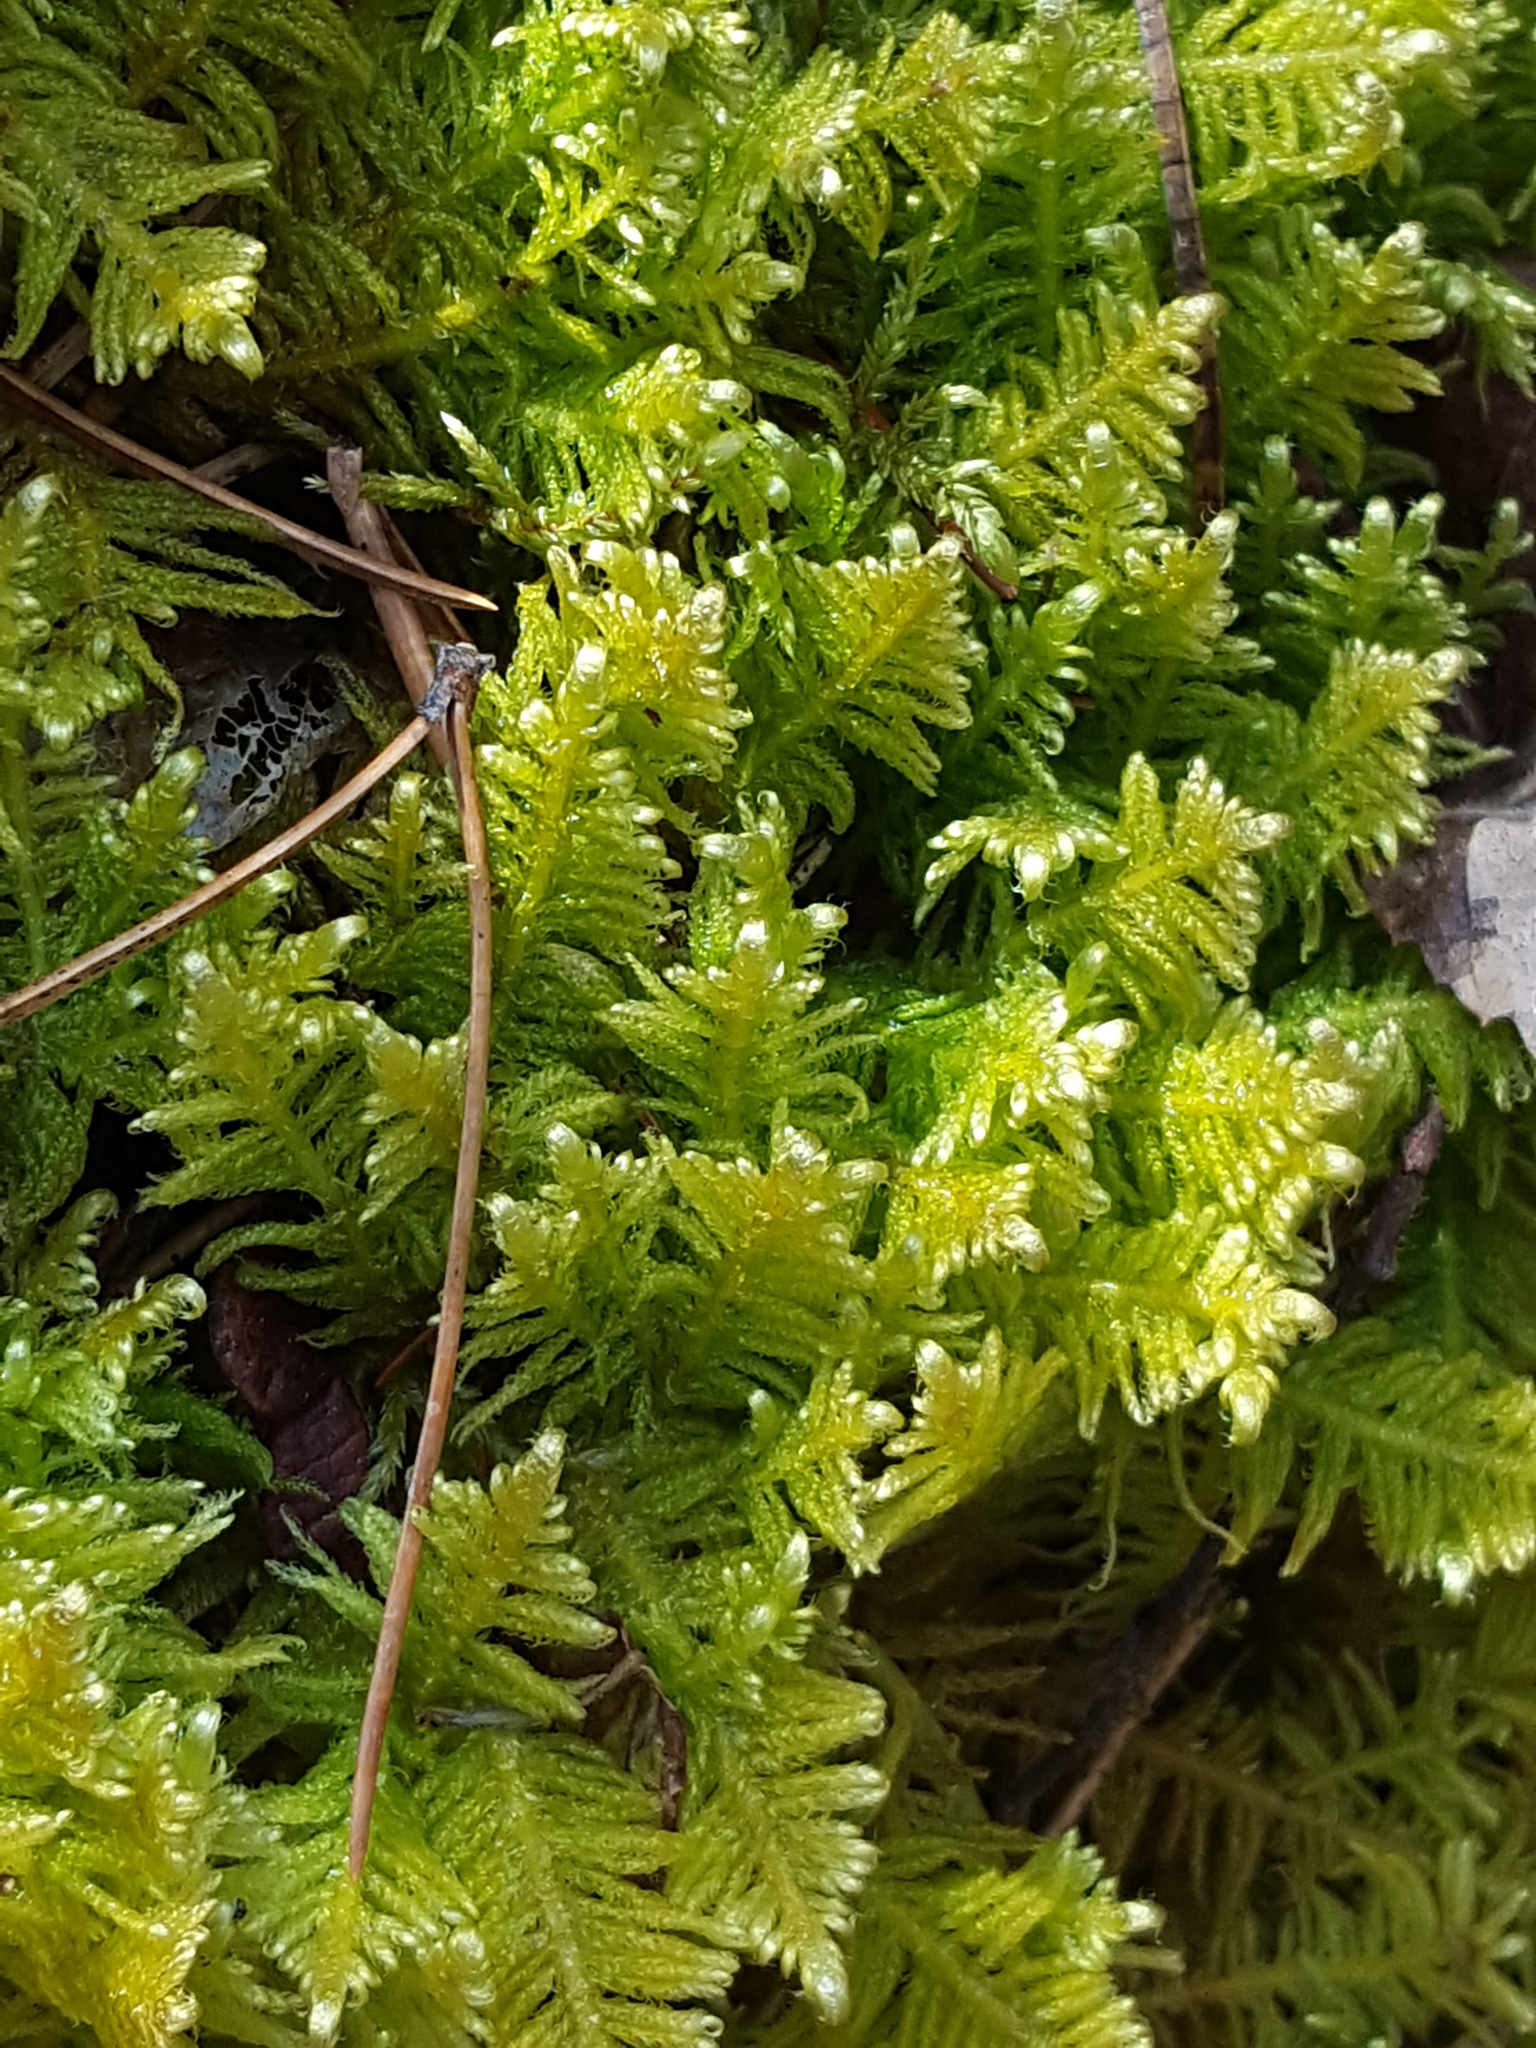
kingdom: Plantae
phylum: Bryophyta
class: Bryopsida
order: Hypnales
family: Pylaisiaceae
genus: Ptilium
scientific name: Ptilium crista-castrensis
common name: Knight's plume moss
